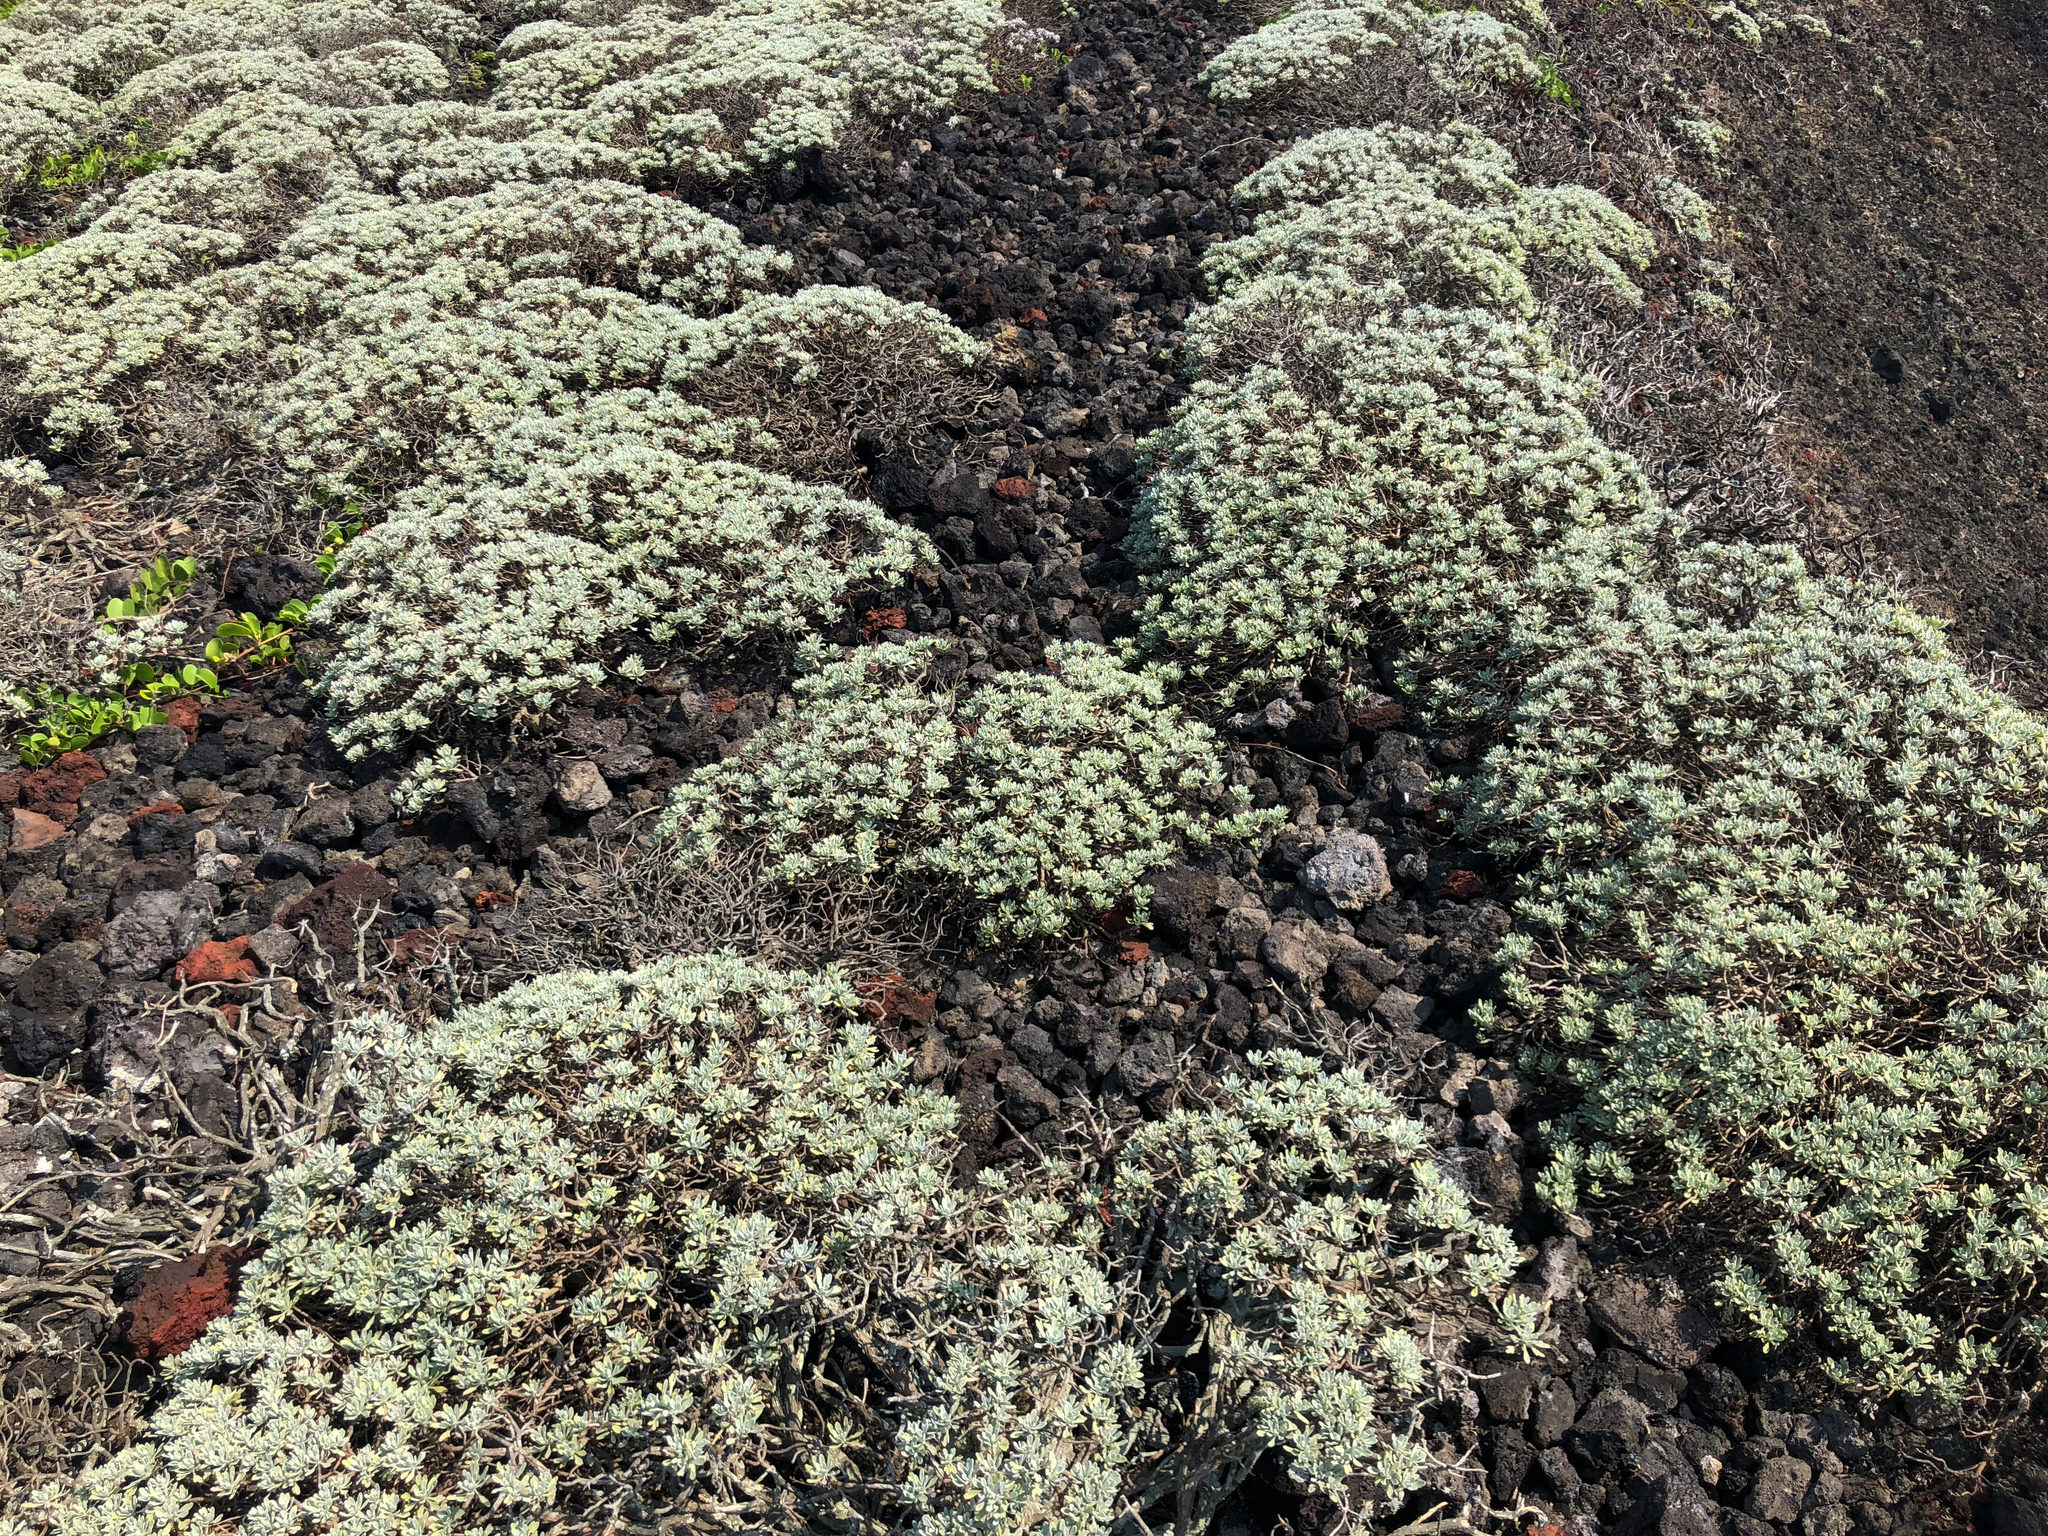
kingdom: Plantae
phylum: Tracheophyta
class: Magnoliopsida
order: Asterales
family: Asteraceae
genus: Crossostephium
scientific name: Crossostephium chinense
